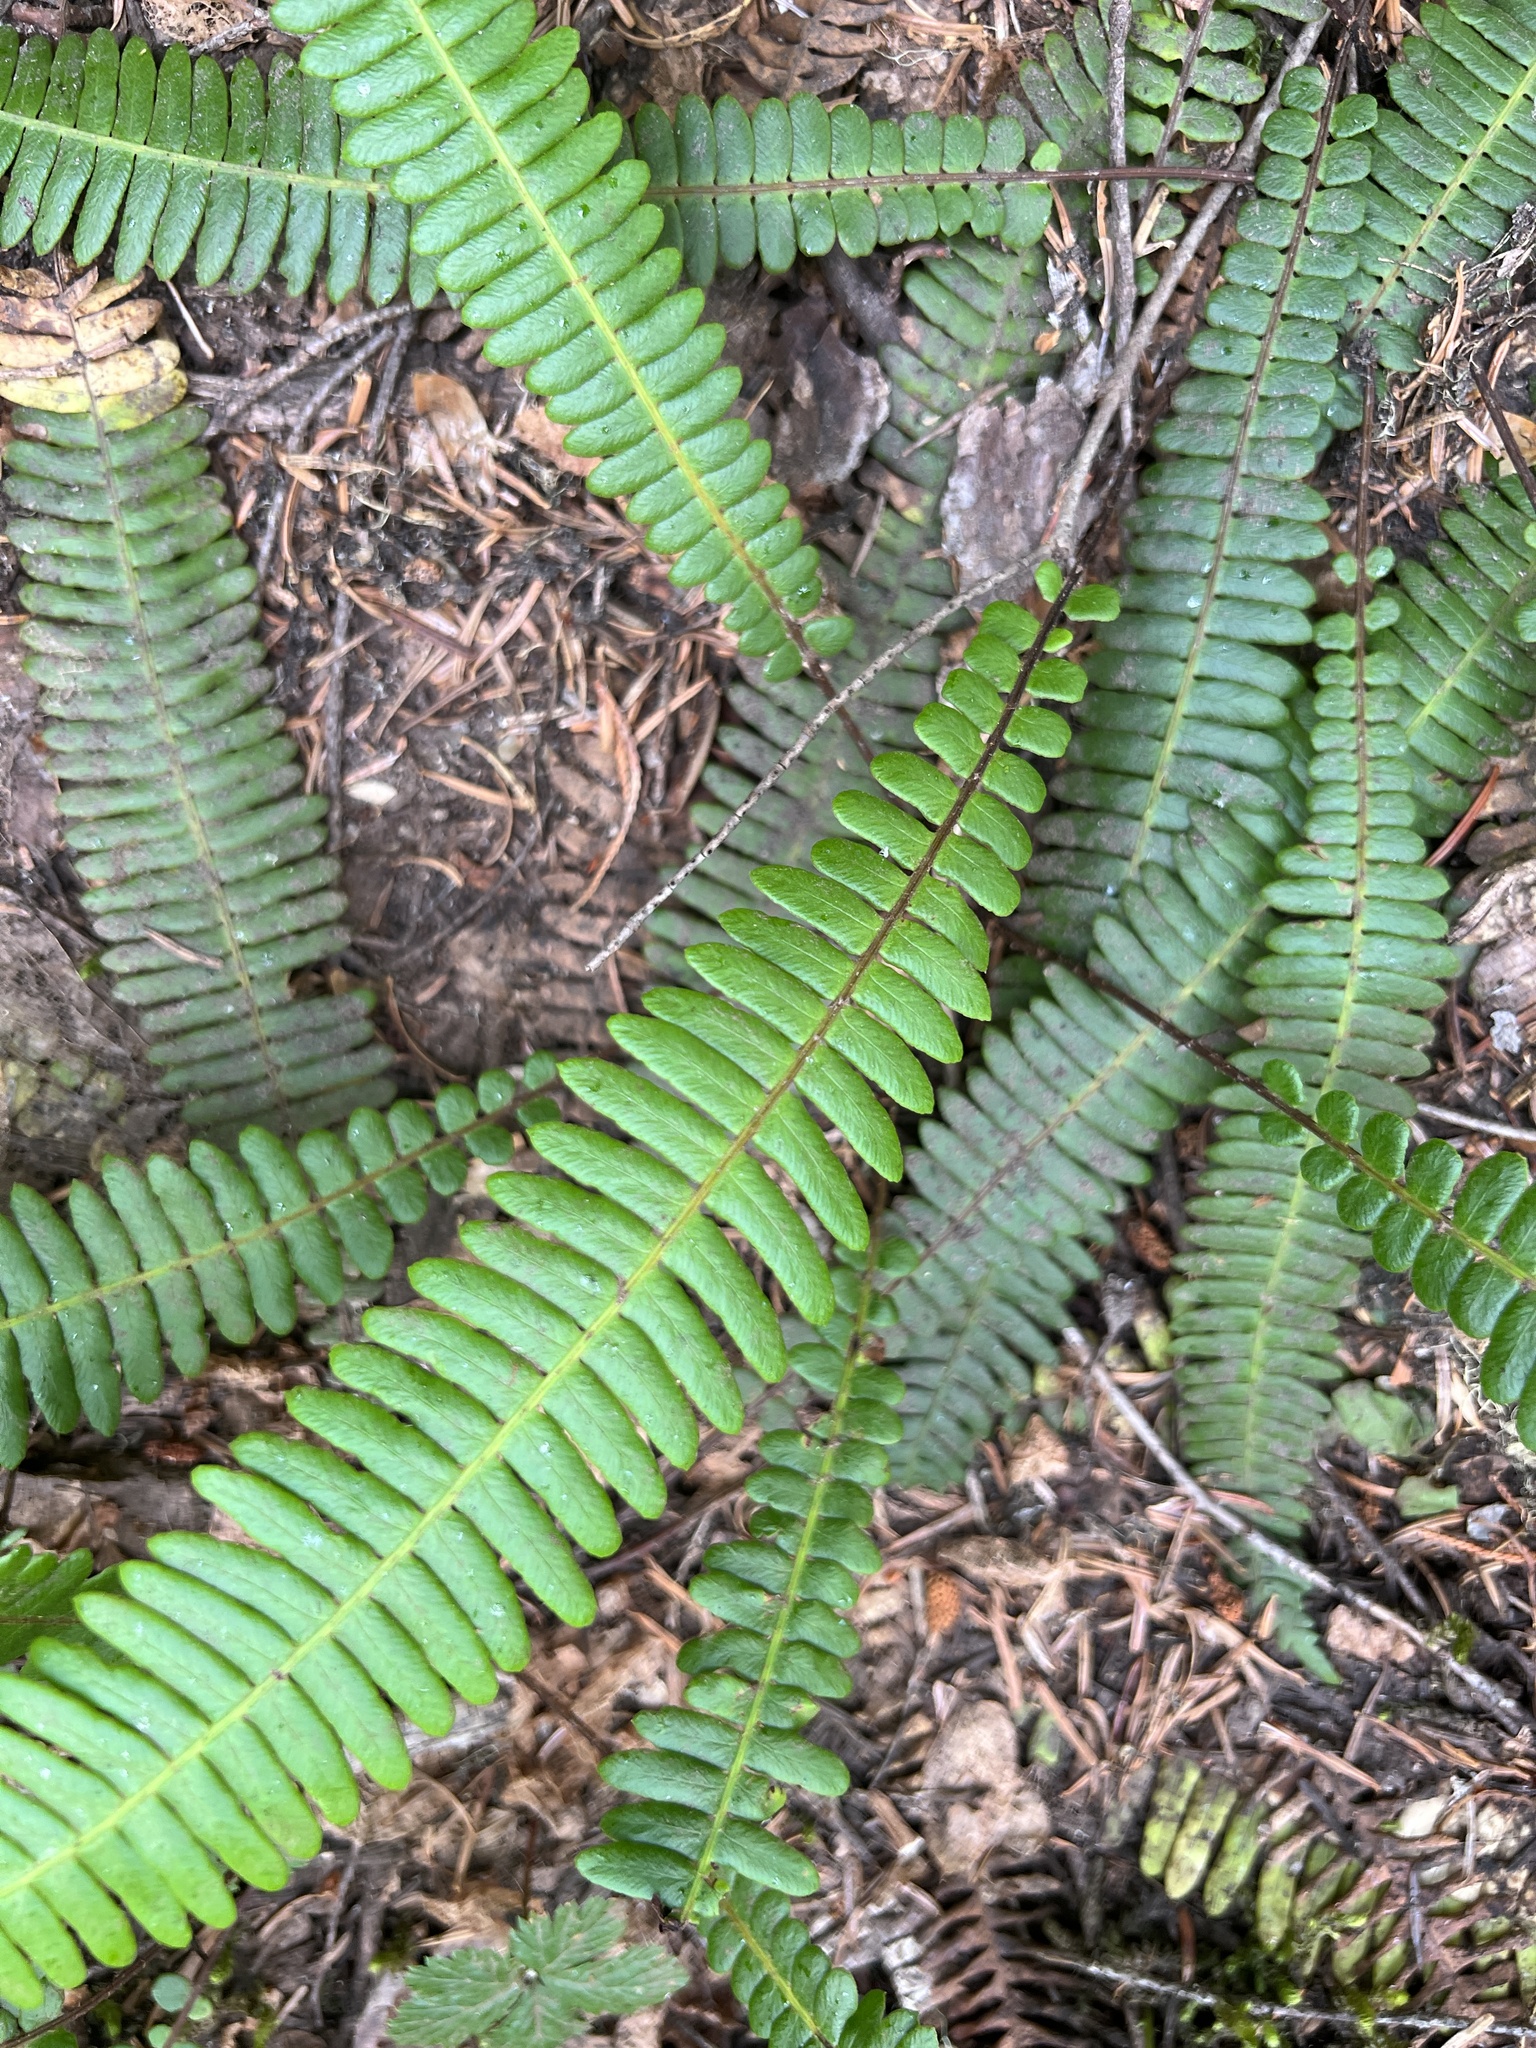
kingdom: Plantae
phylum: Tracheophyta
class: Polypodiopsida
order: Polypodiales
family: Blechnaceae
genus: Struthiopteris
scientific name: Struthiopteris spicant
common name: Deer fern
